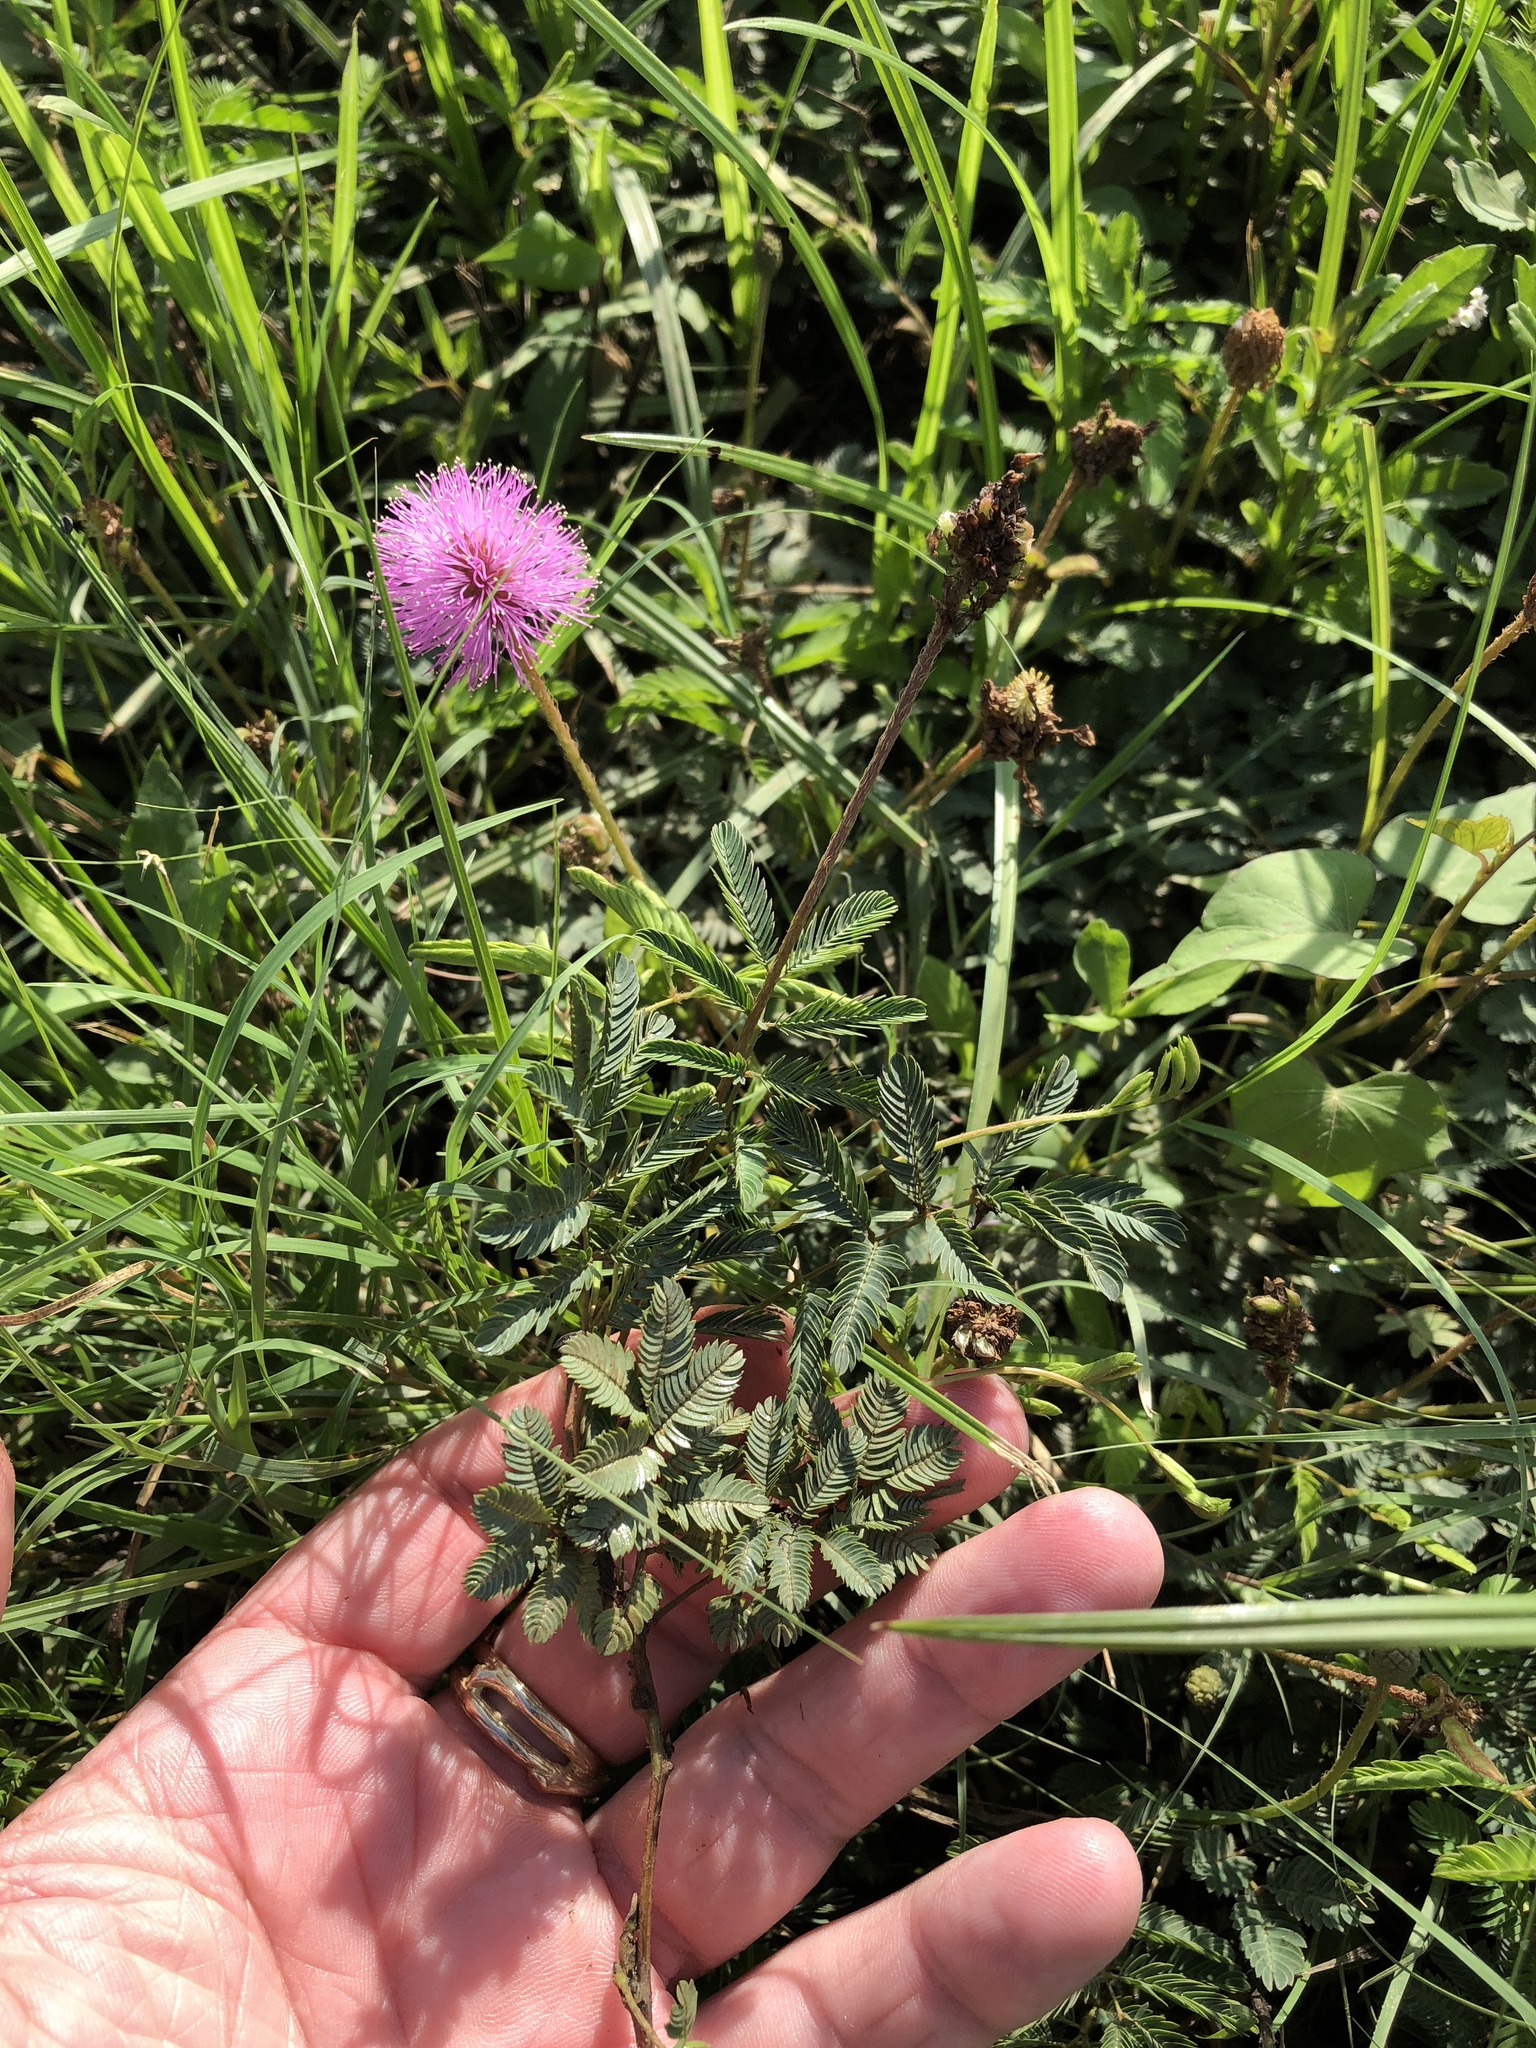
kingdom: Plantae
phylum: Tracheophyta
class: Magnoliopsida
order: Fabales
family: Fabaceae
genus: Mimosa
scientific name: Mimosa quadrivalvis
